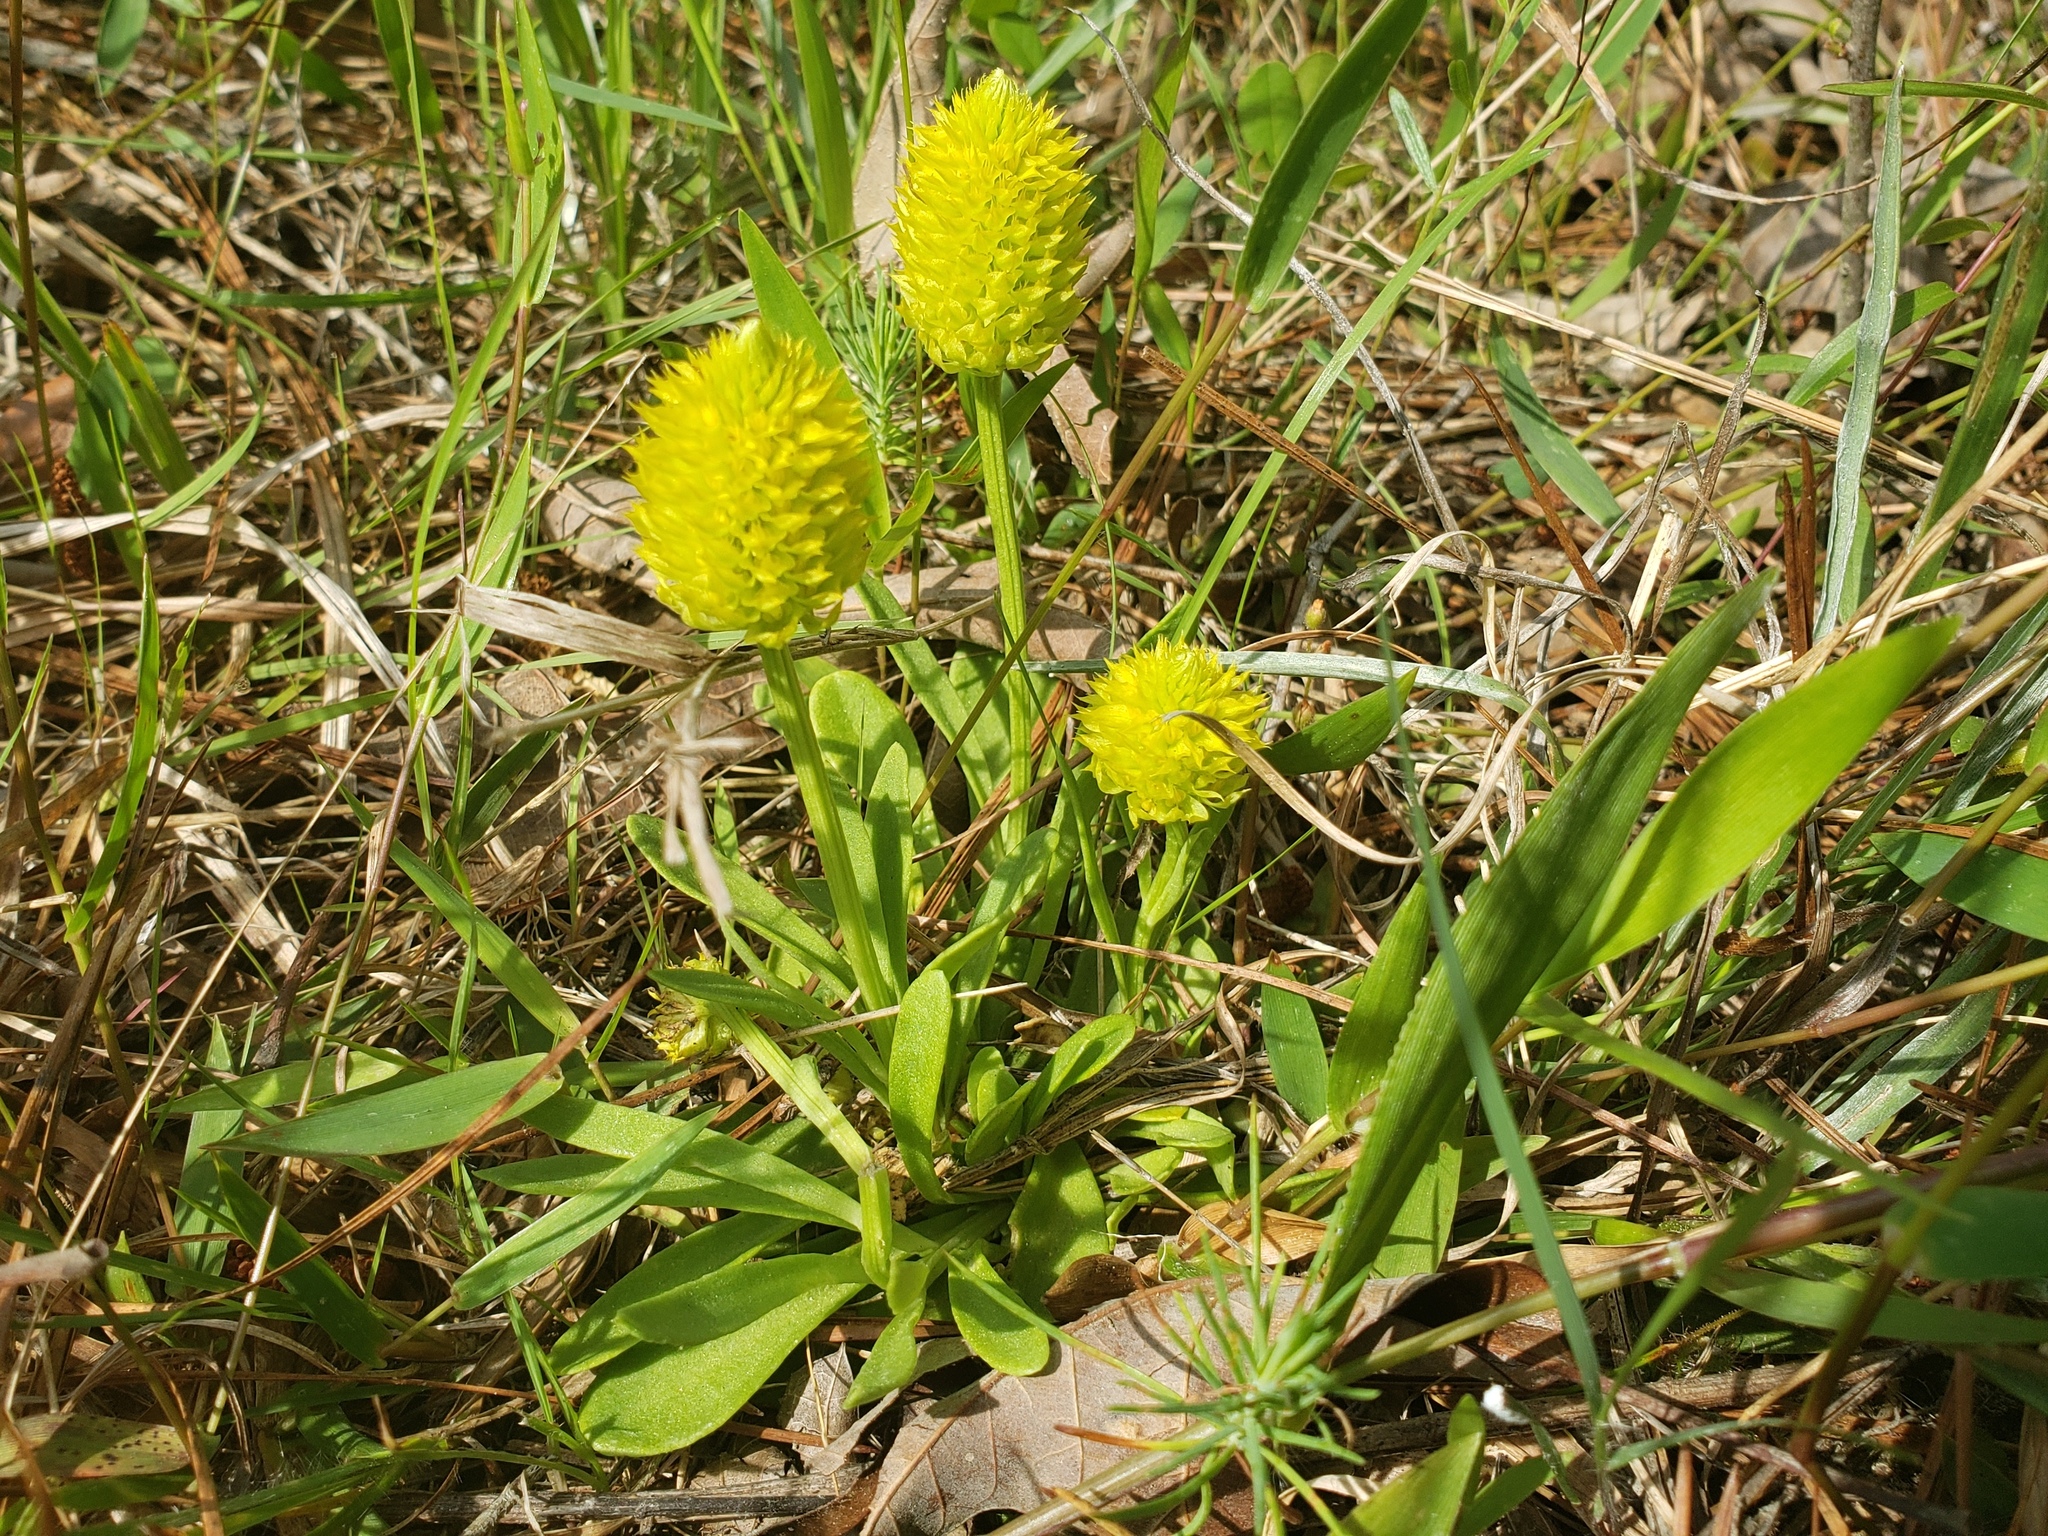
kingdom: Plantae
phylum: Tracheophyta
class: Magnoliopsida
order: Fabales
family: Polygalaceae
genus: Polygala
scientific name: Polygala nana
